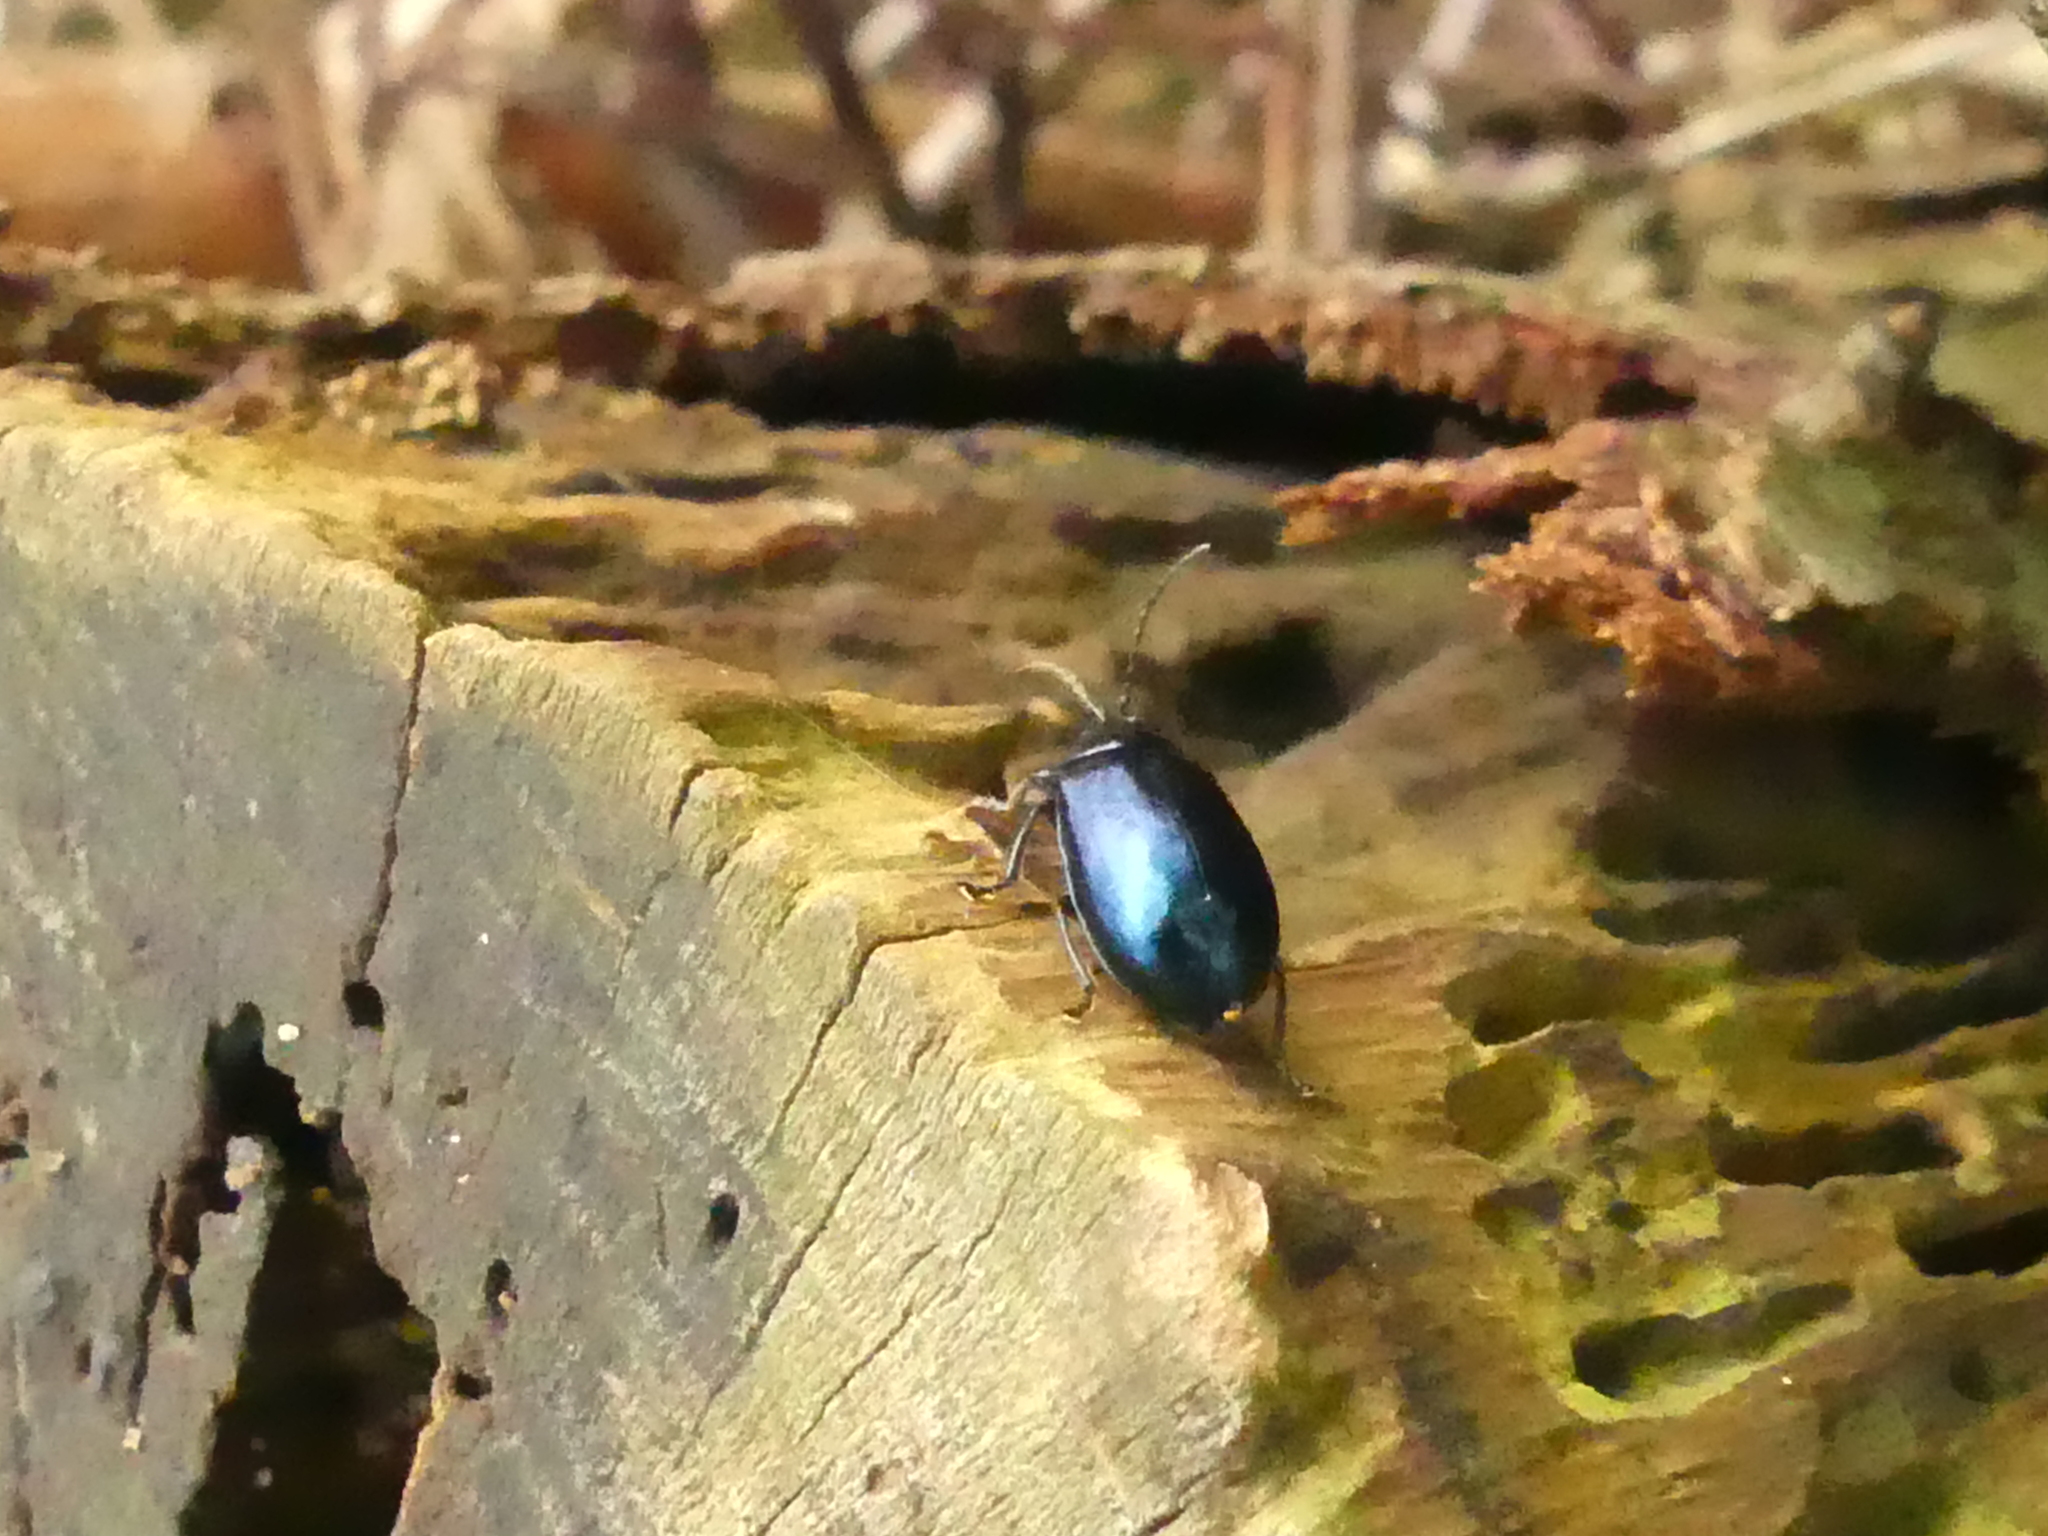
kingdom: Animalia
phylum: Arthropoda
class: Insecta
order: Coleoptera
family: Chrysomelidae
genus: Agelastica
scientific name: Agelastica alni
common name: Alder leaf beetle
